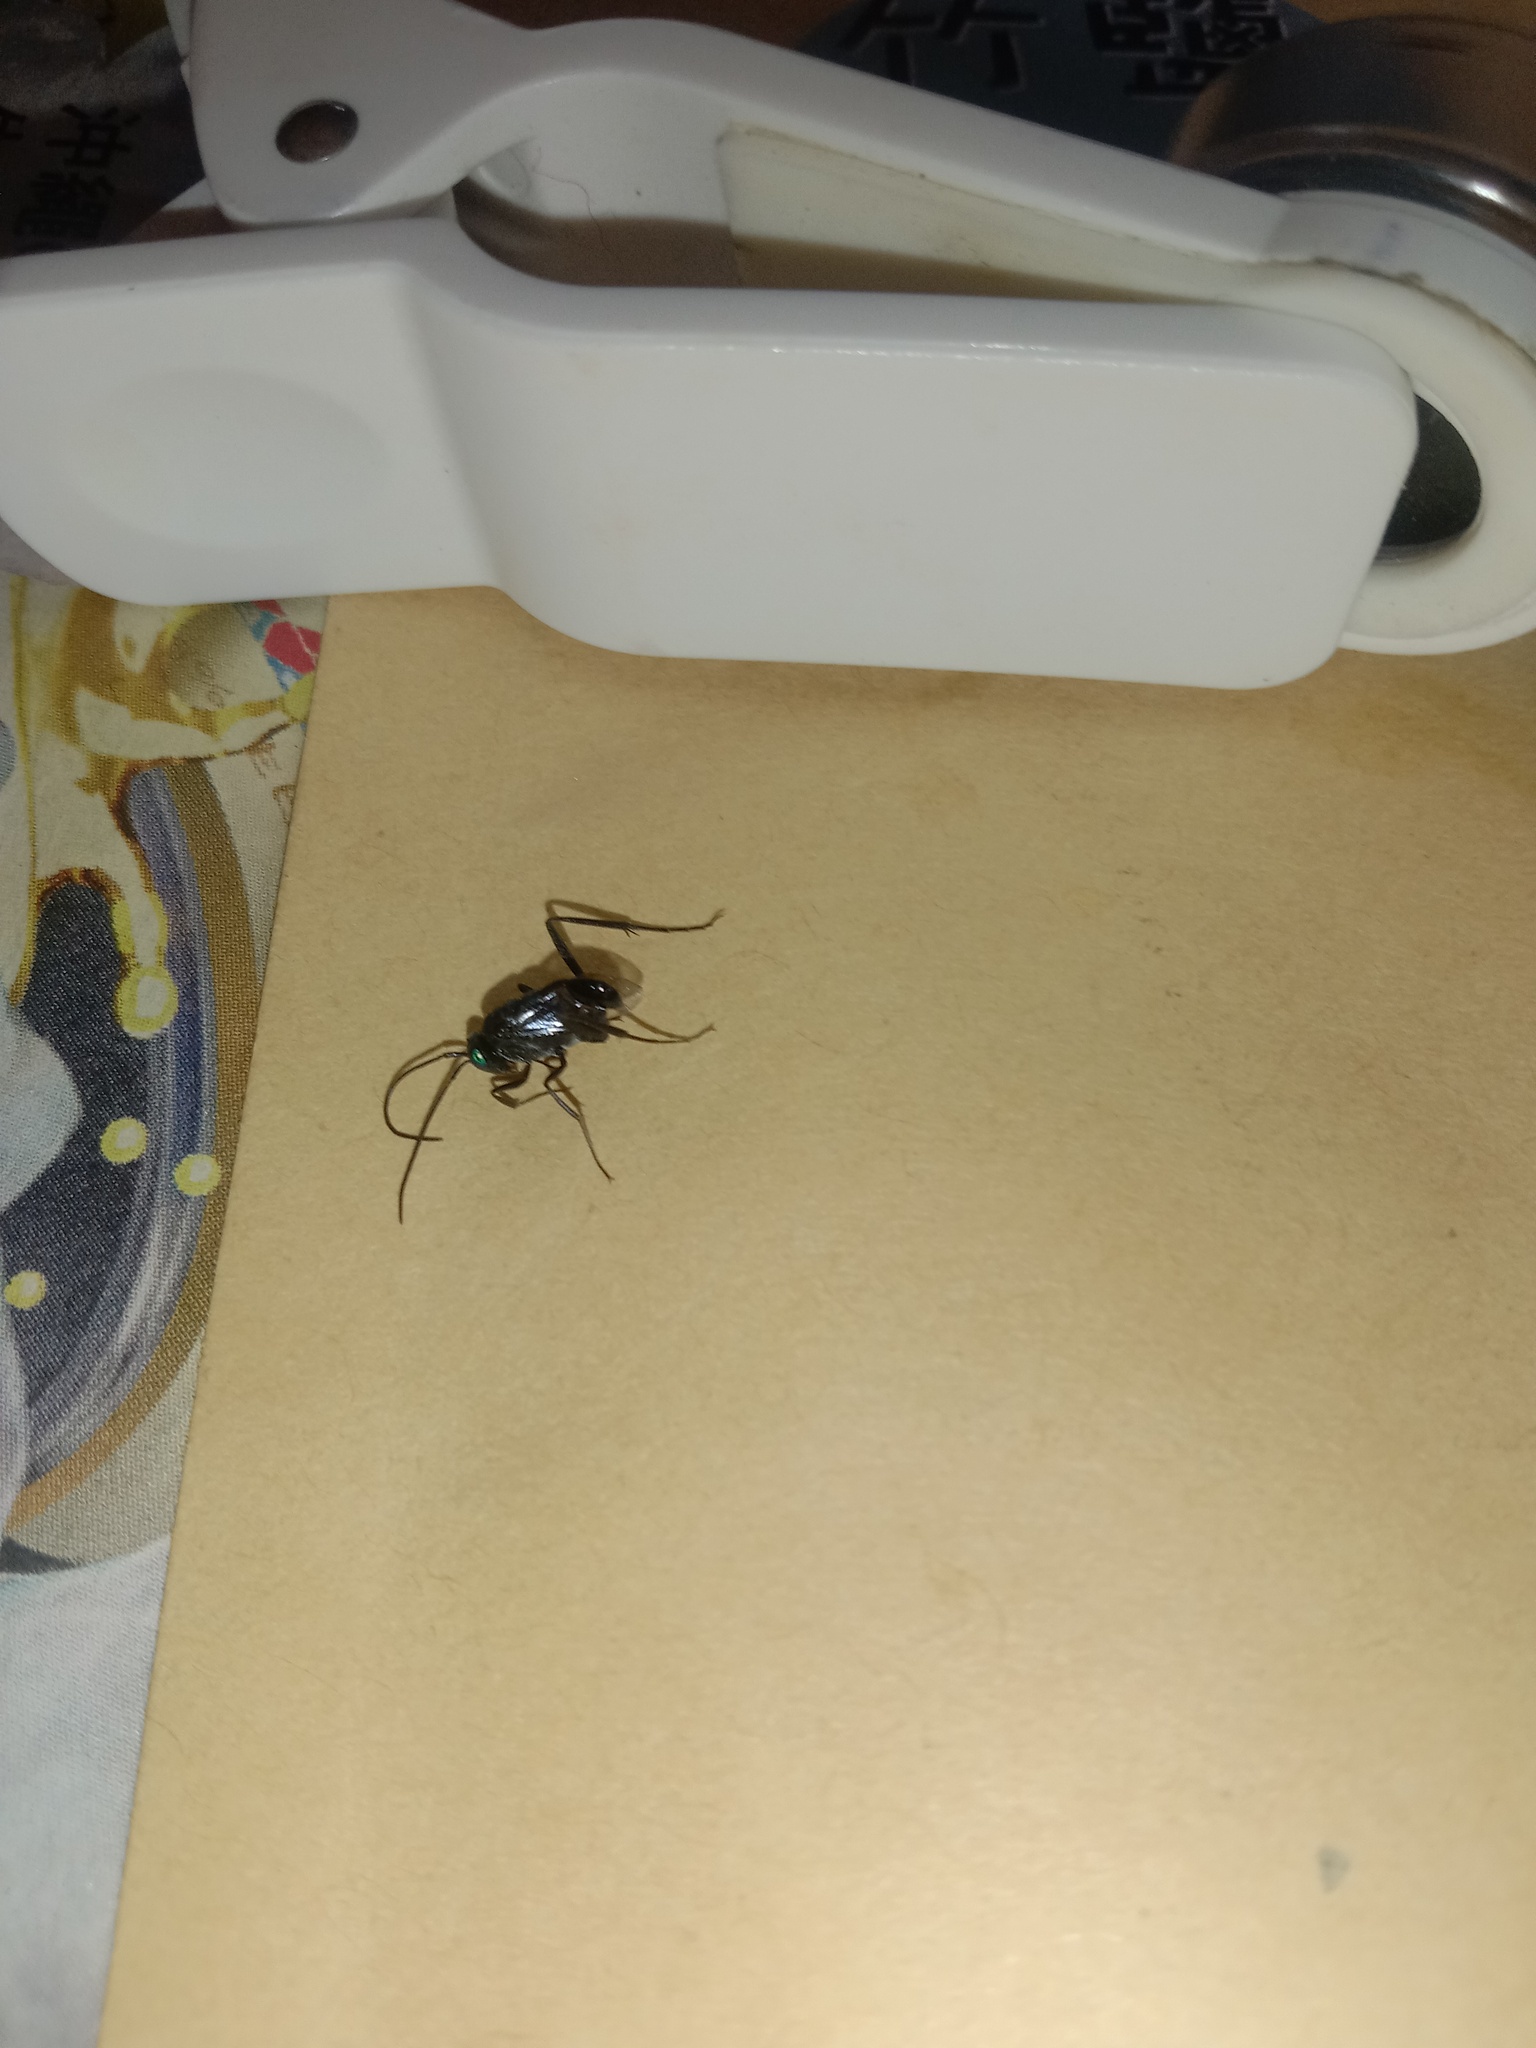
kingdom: Animalia
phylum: Arthropoda
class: Insecta
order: Hymenoptera
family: Evaniidae
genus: Evania
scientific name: Evania appendigaster
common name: Ensign wasp
